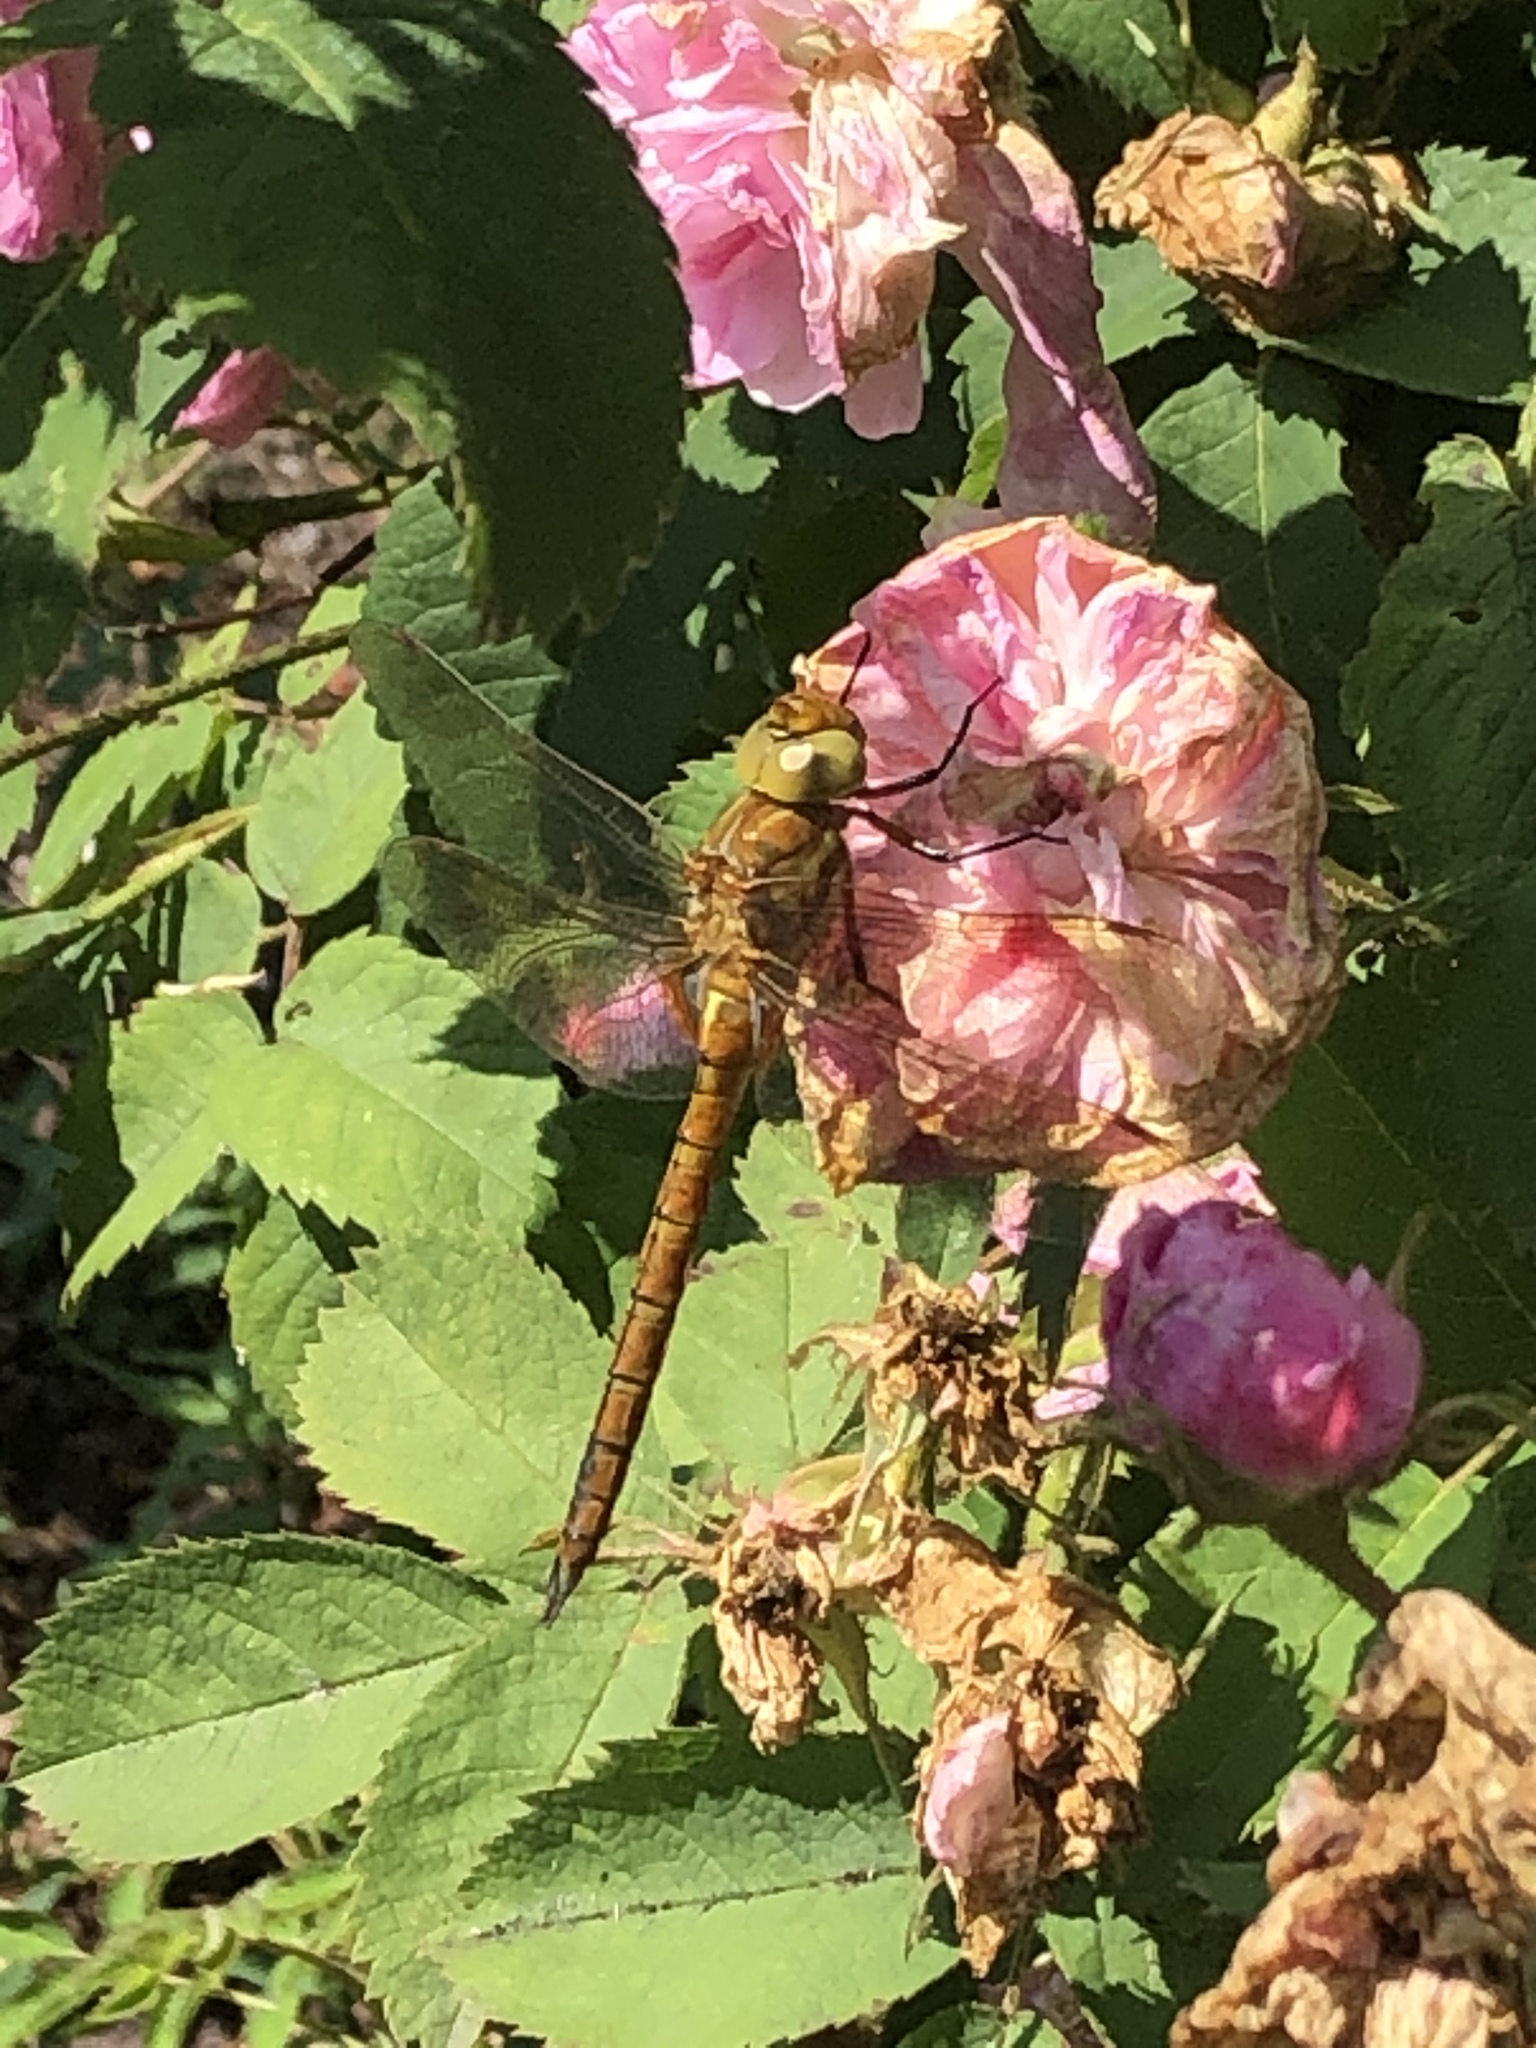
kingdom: Animalia
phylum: Arthropoda
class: Insecta
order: Odonata
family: Aeshnidae
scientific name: Aeshnidae
